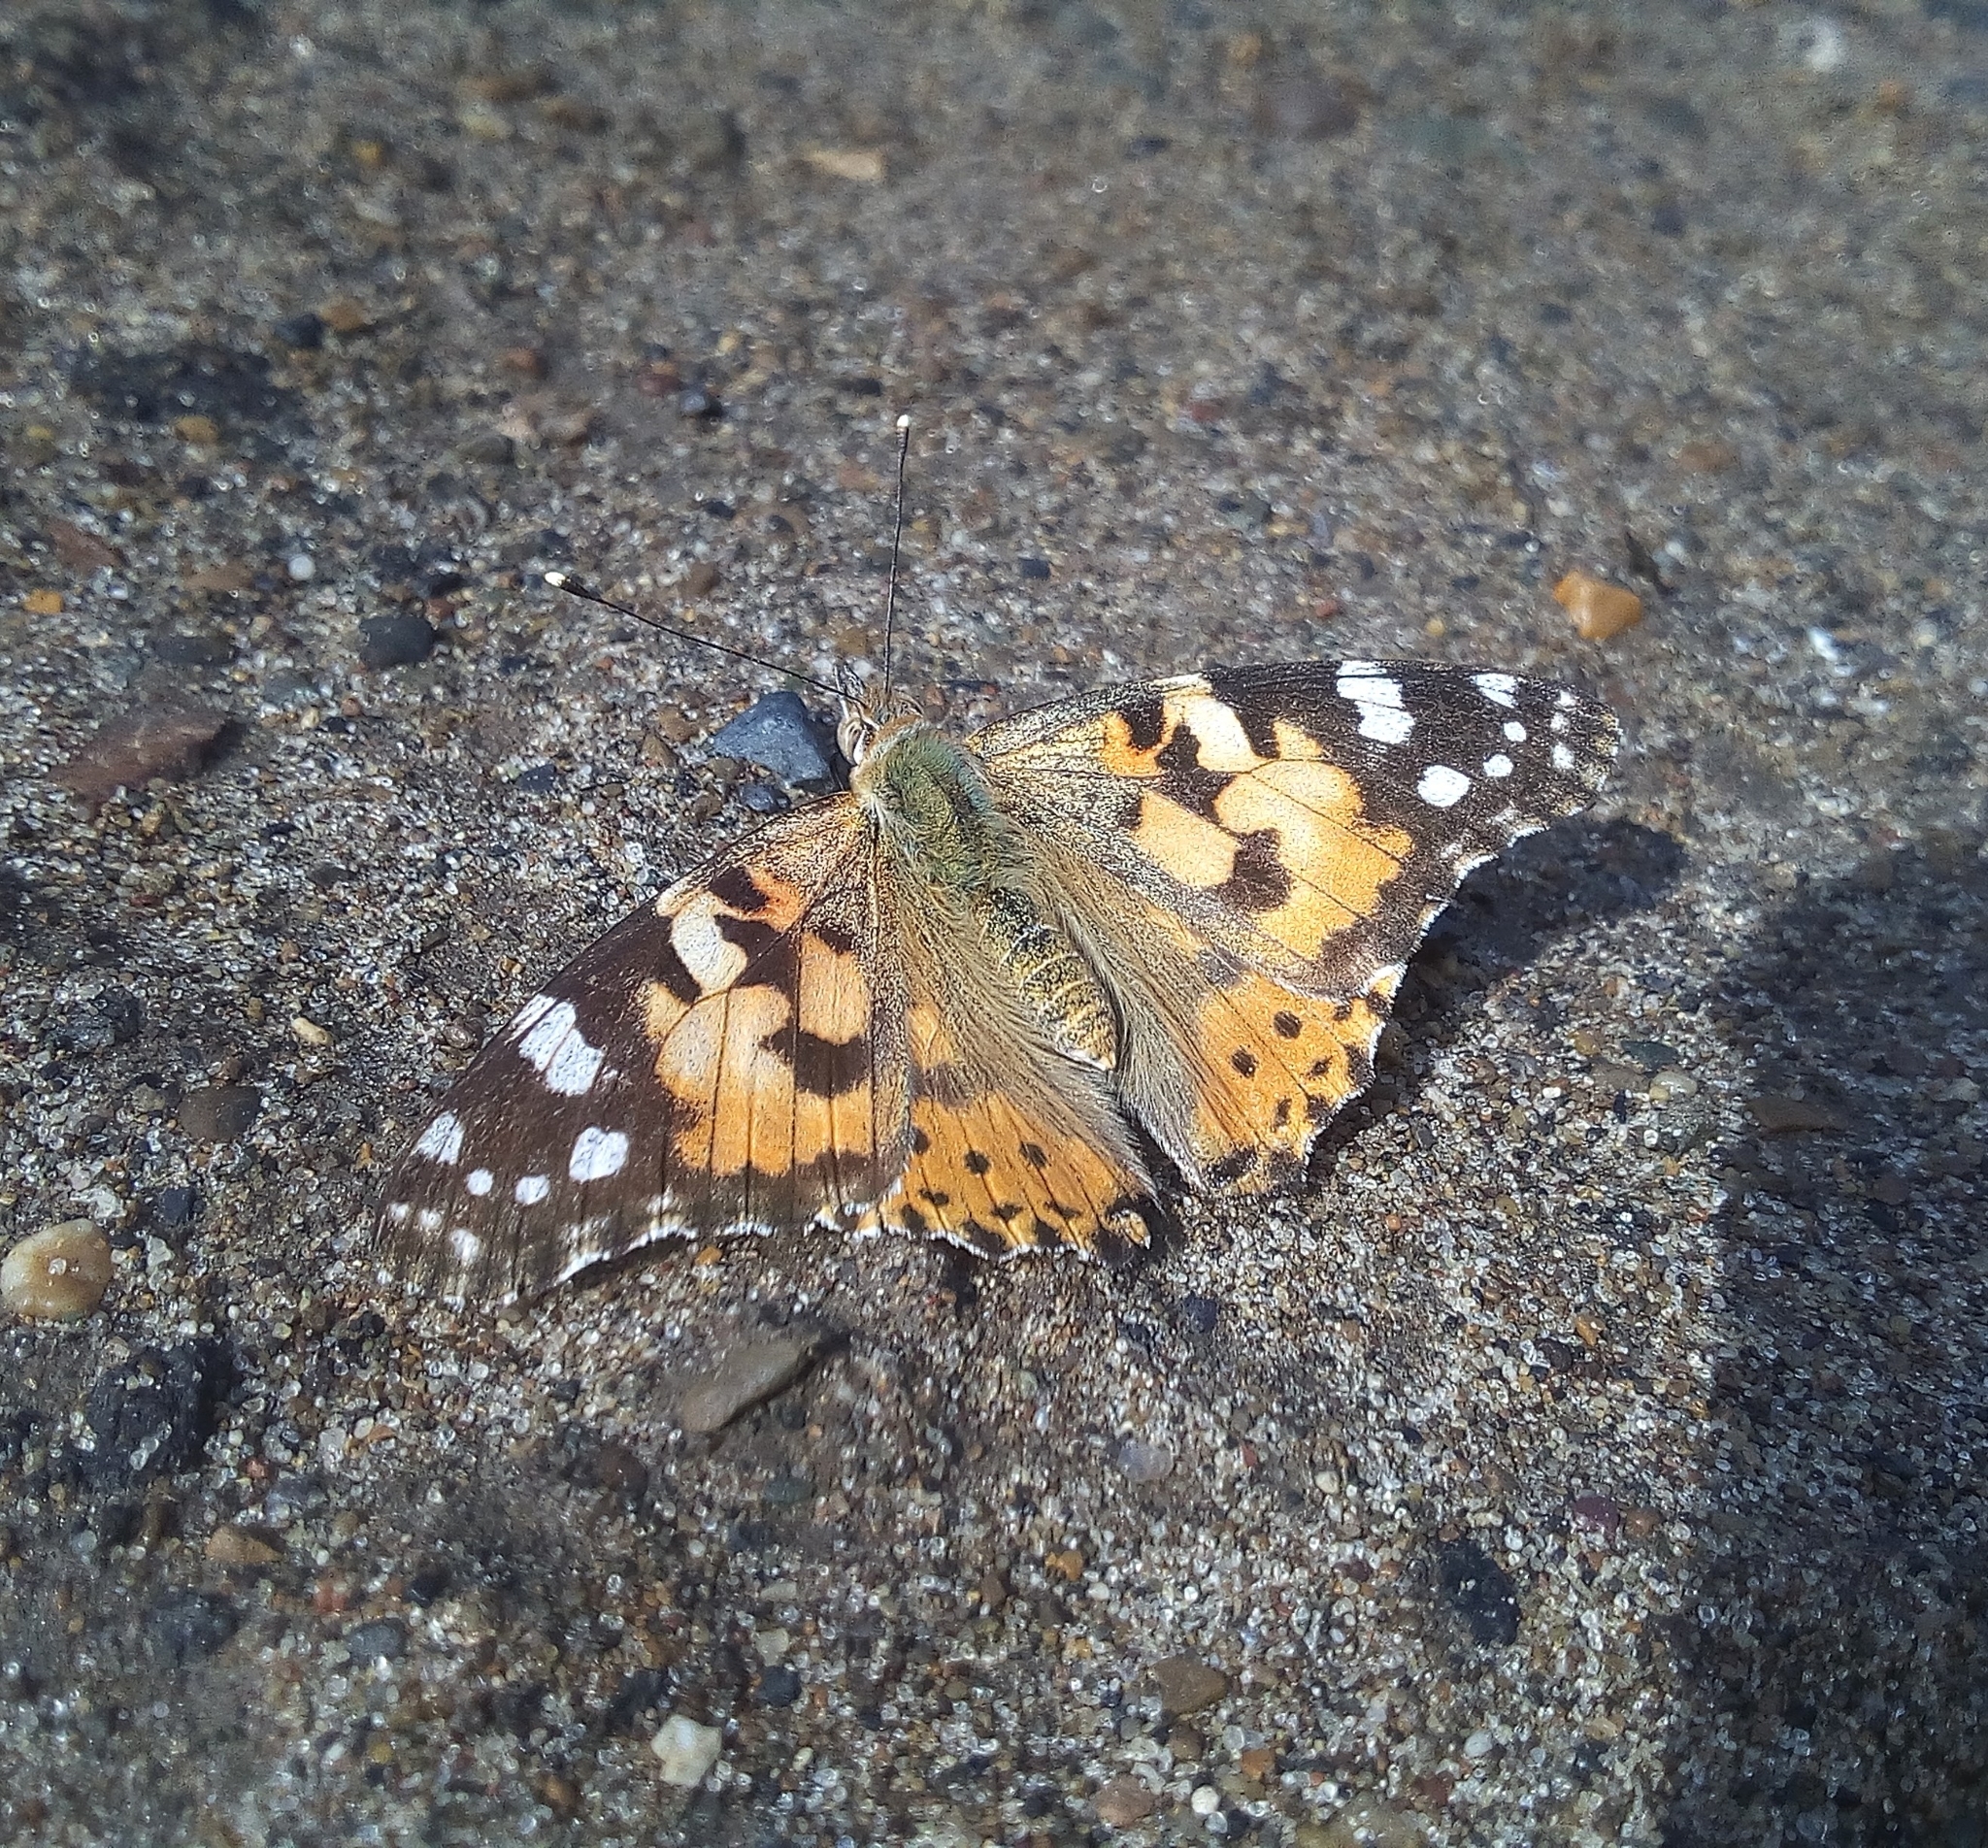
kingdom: Animalia
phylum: Arthropoda
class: Insecta
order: Lepidoptera
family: Nymphalidae
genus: Vanessa
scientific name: Vanessa cardui
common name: Painted lady
